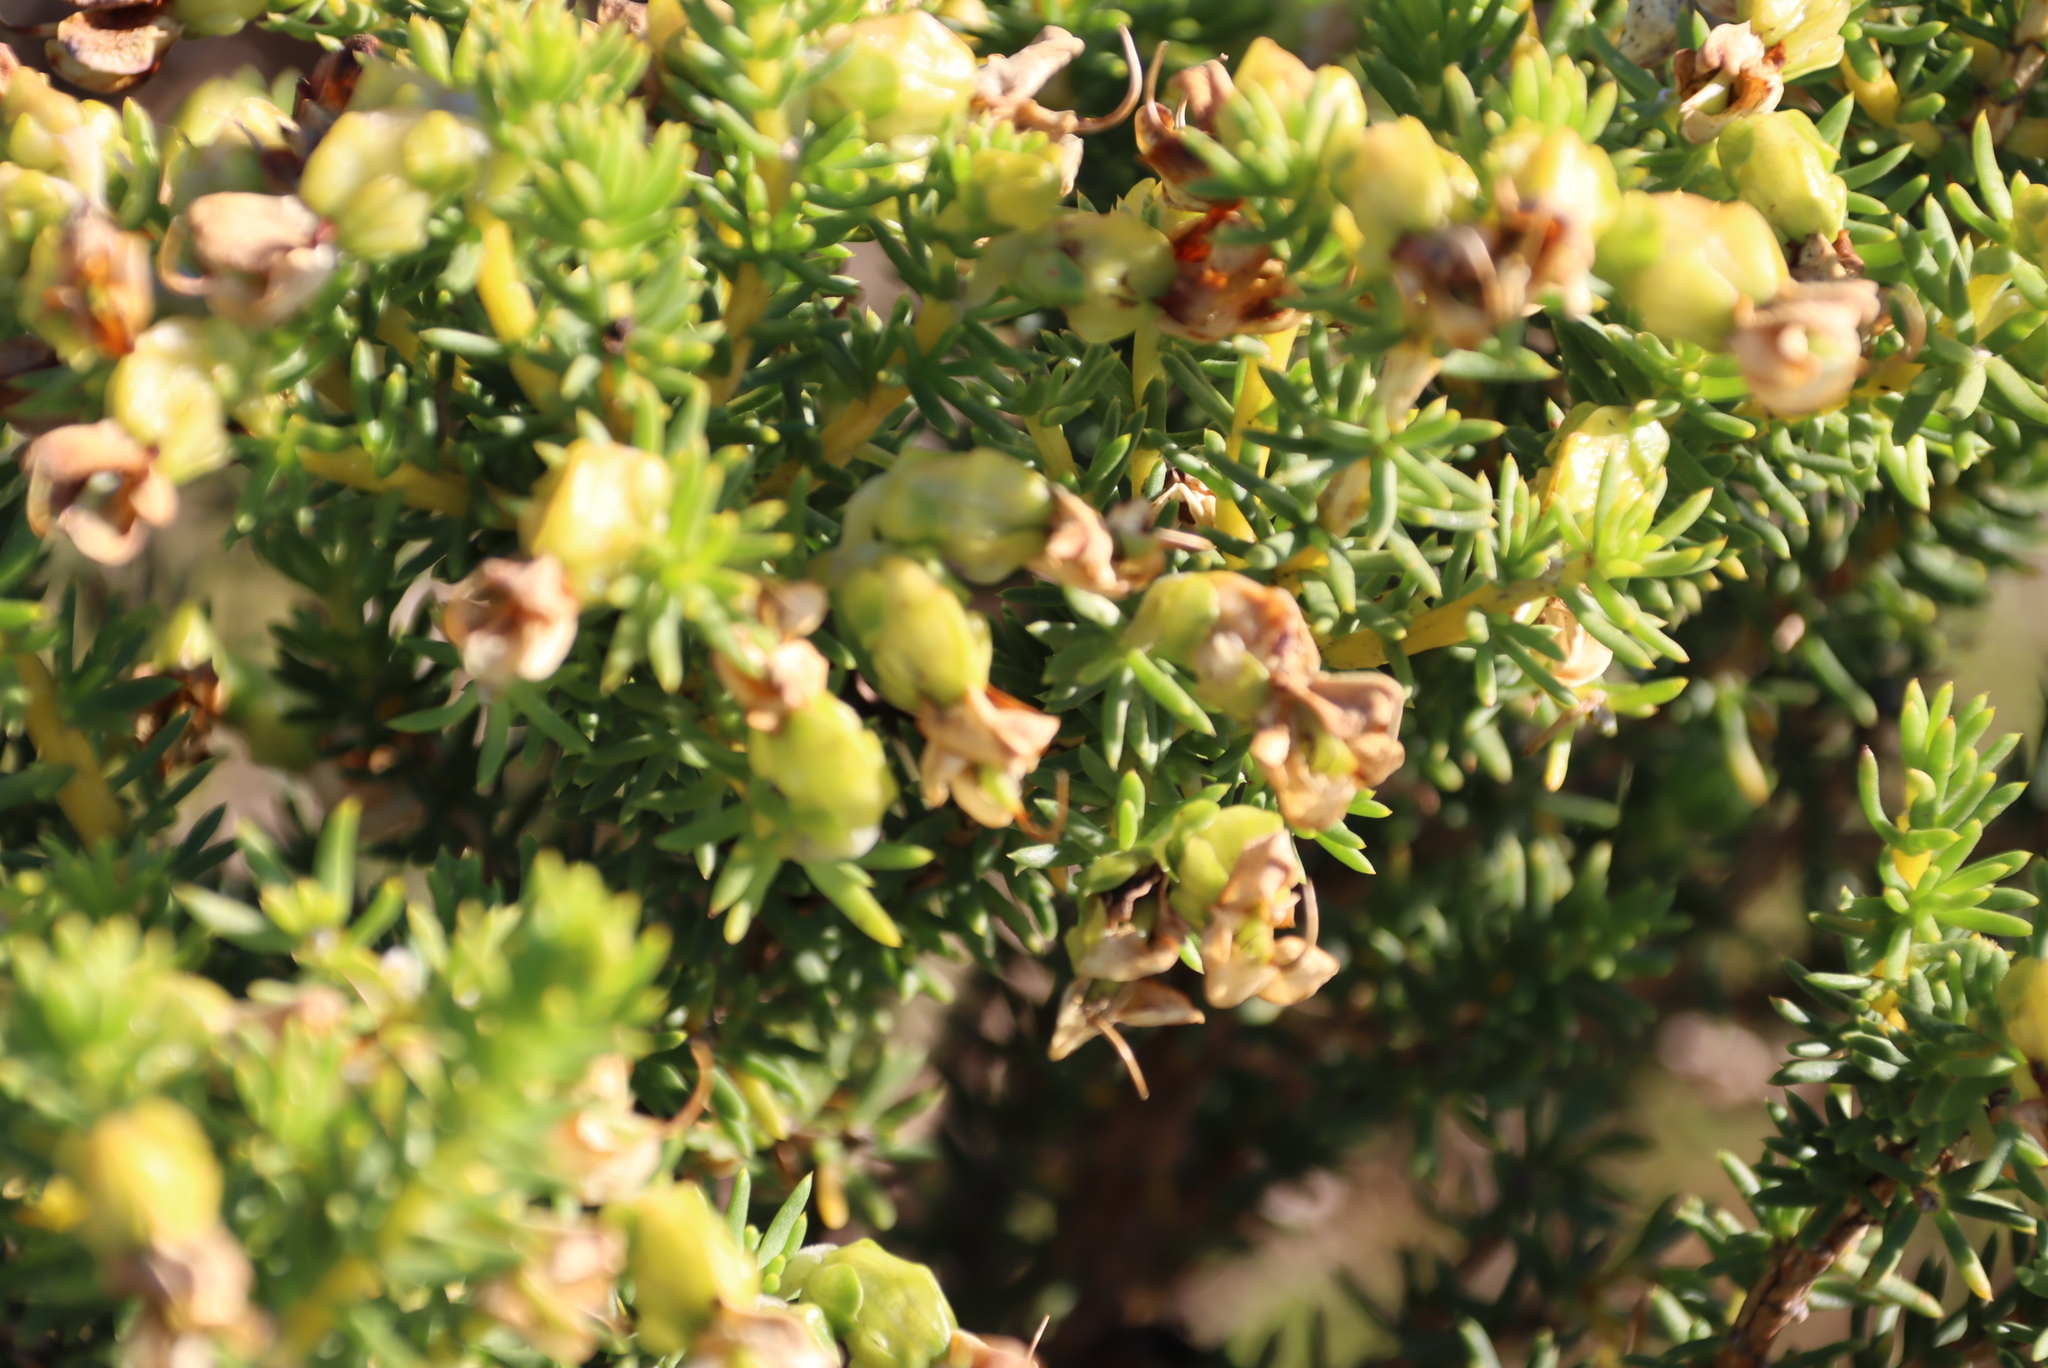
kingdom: Plantae
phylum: Tracheophyta
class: Magnoliopsida
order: Fabales
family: Fabaceae
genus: Aspalathus
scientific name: Aspalathus capensis
